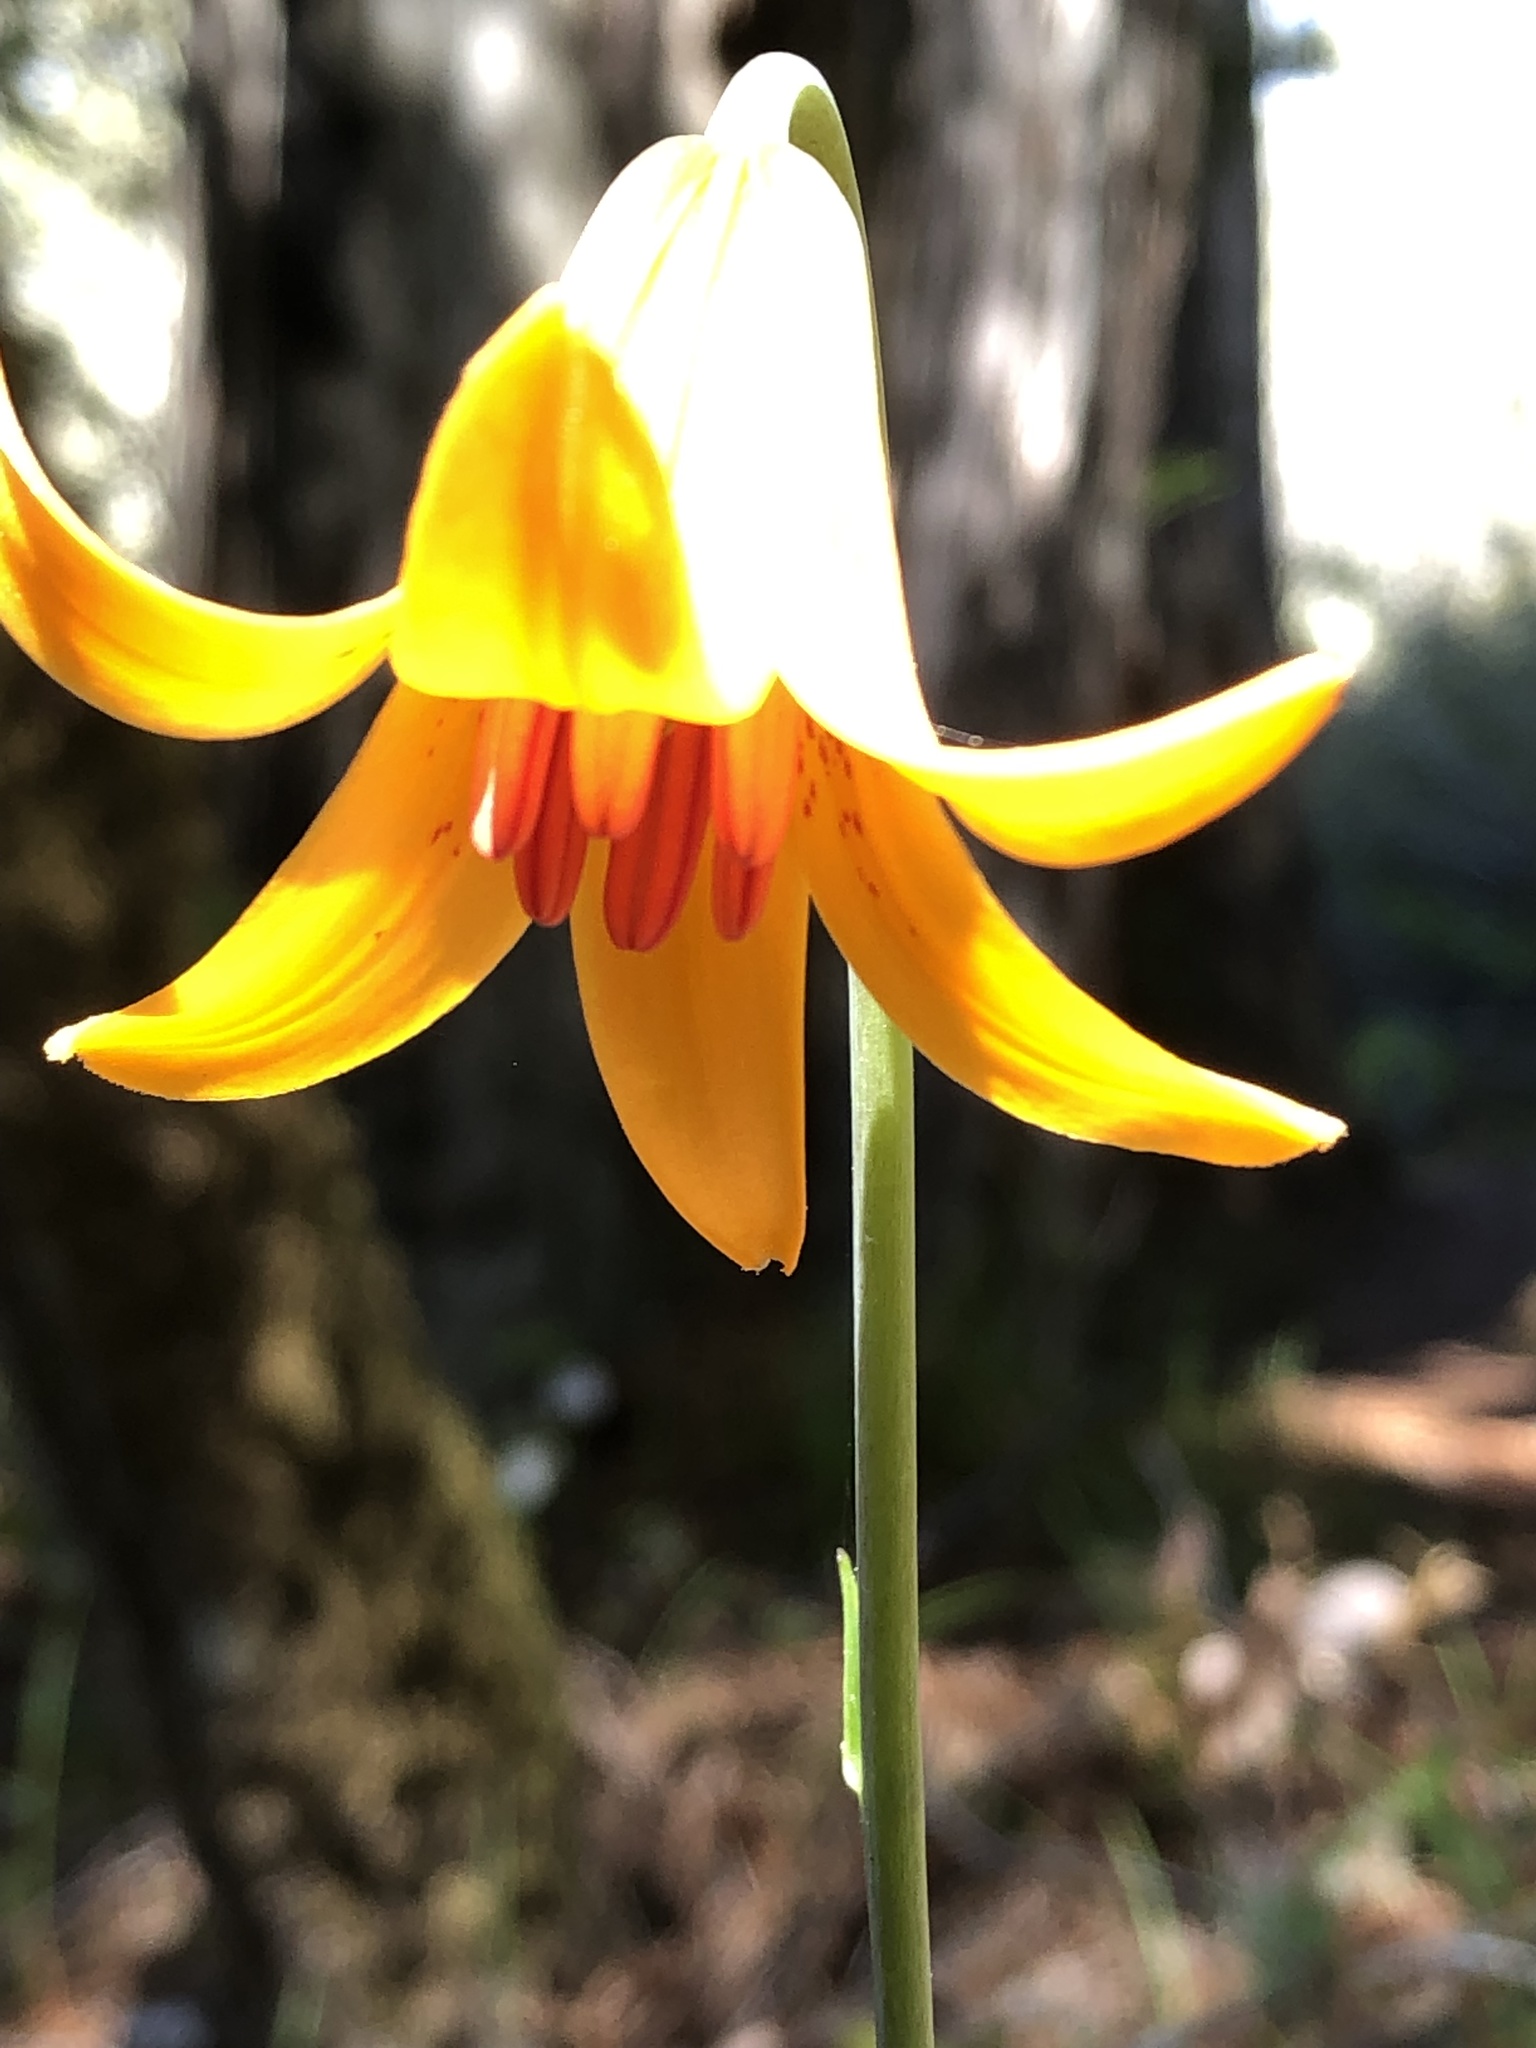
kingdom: Plantae
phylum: Tracheophyta
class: Liliopsida
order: Liliales
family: Liliaceae
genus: Lilium
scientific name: Lilium maritimum
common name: Coastal lily
